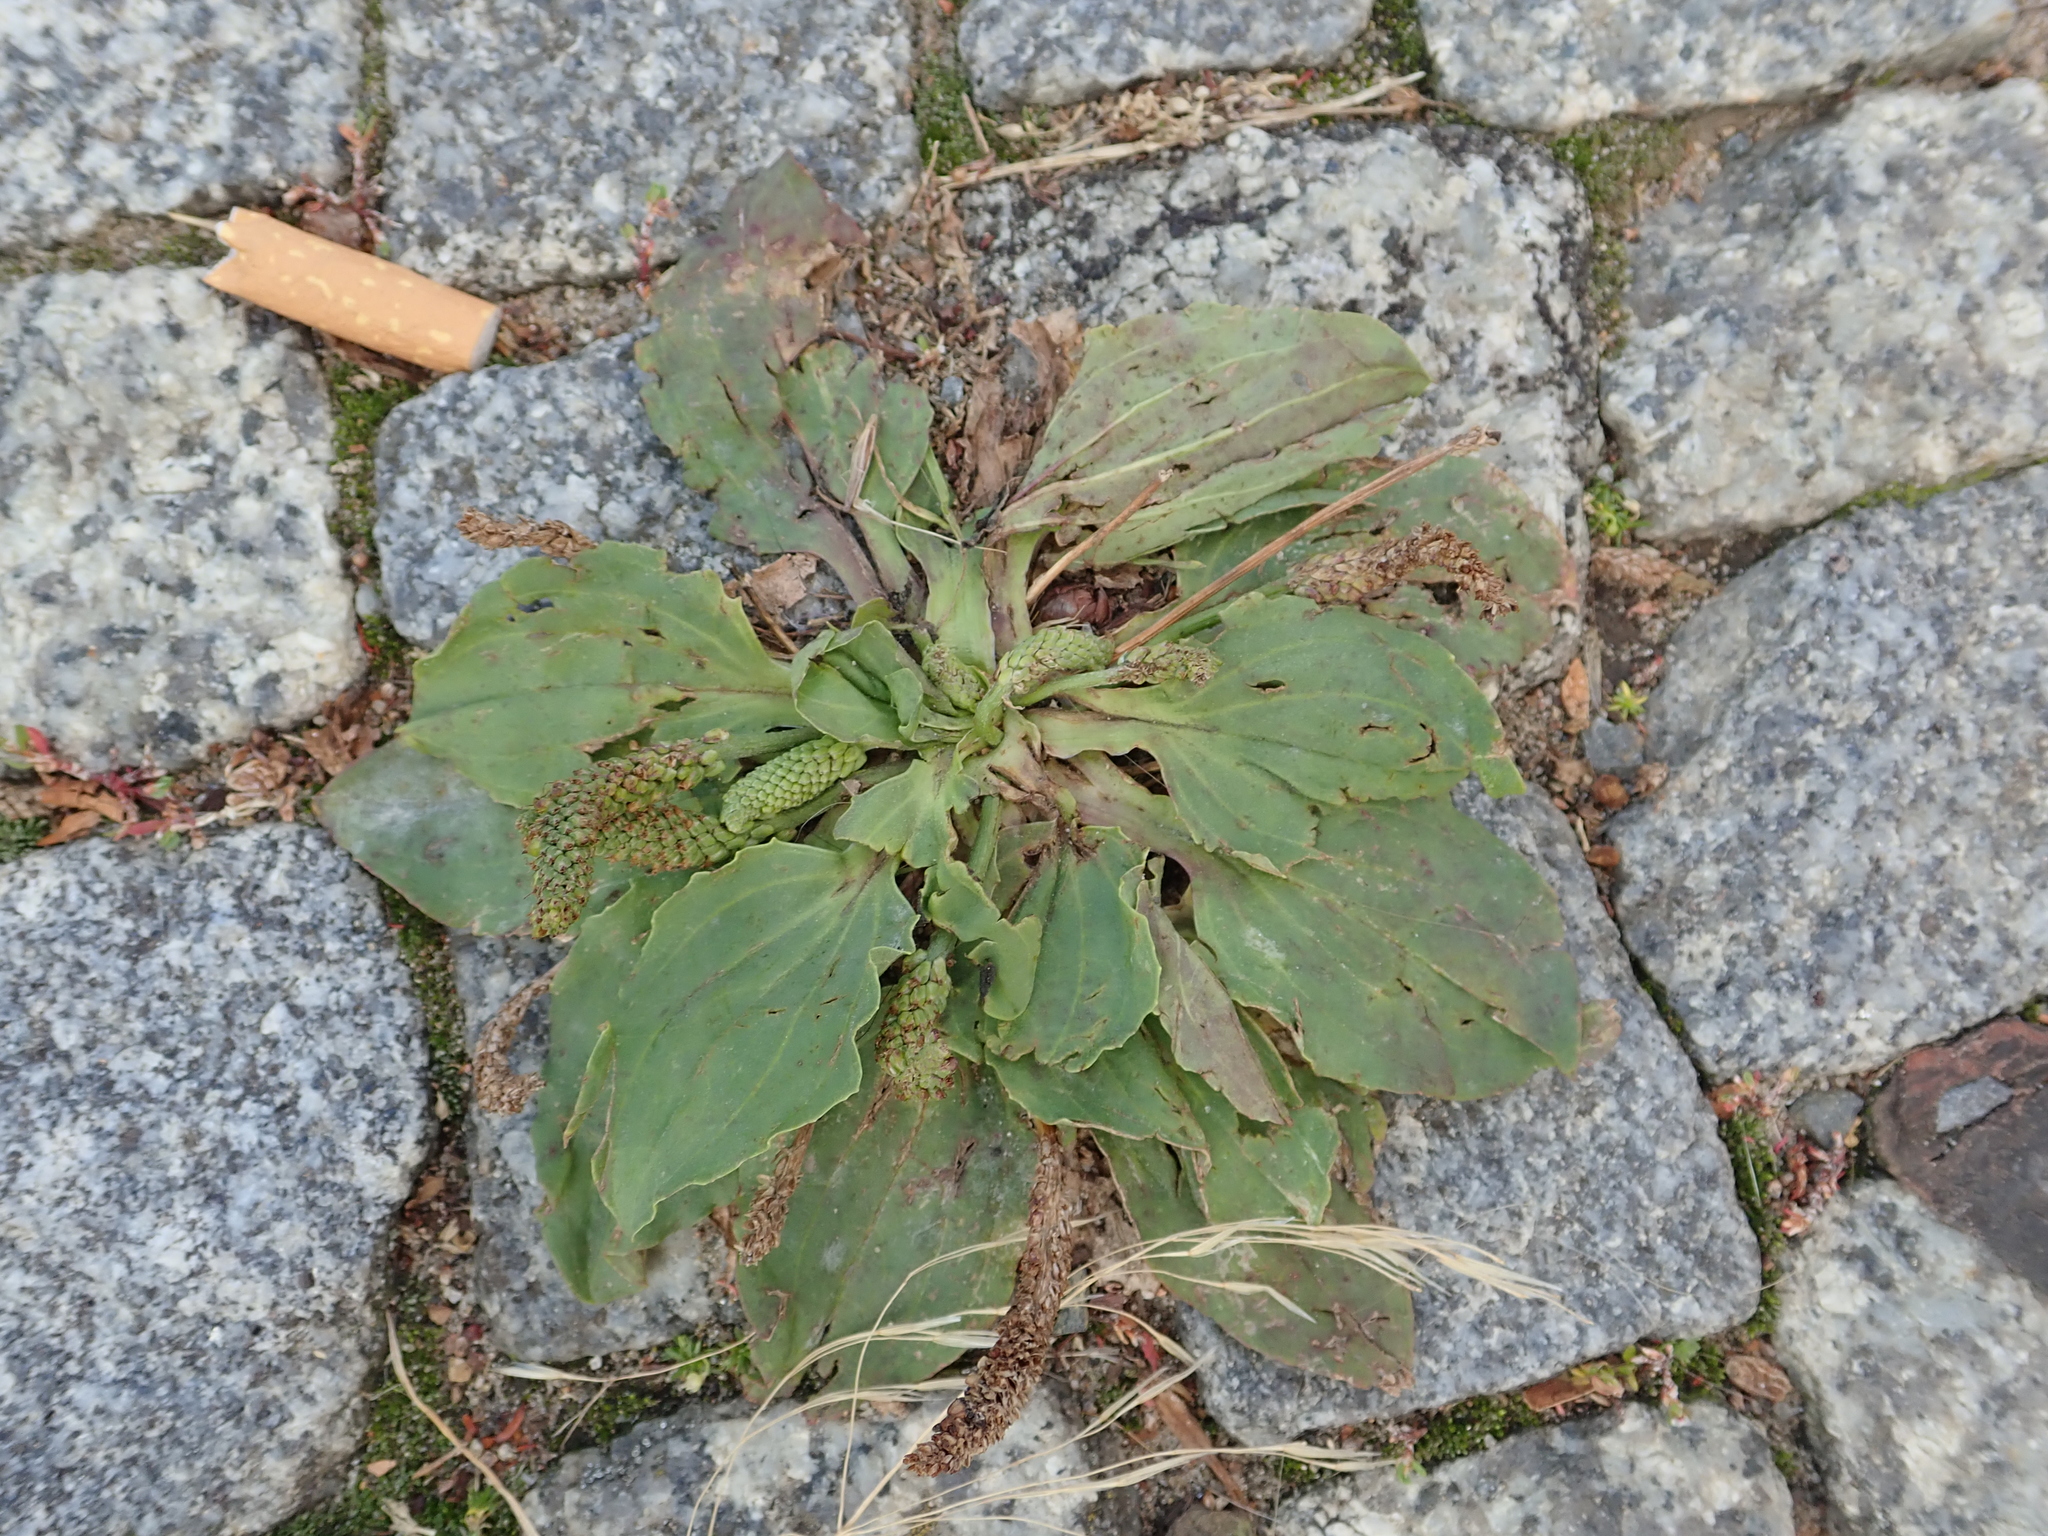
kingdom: Plantae
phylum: Tracheophyta
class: Magnoliopsida
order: Lamiales
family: Plantaginaceae
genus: Plantago
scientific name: Plantago major
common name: Common plantain
